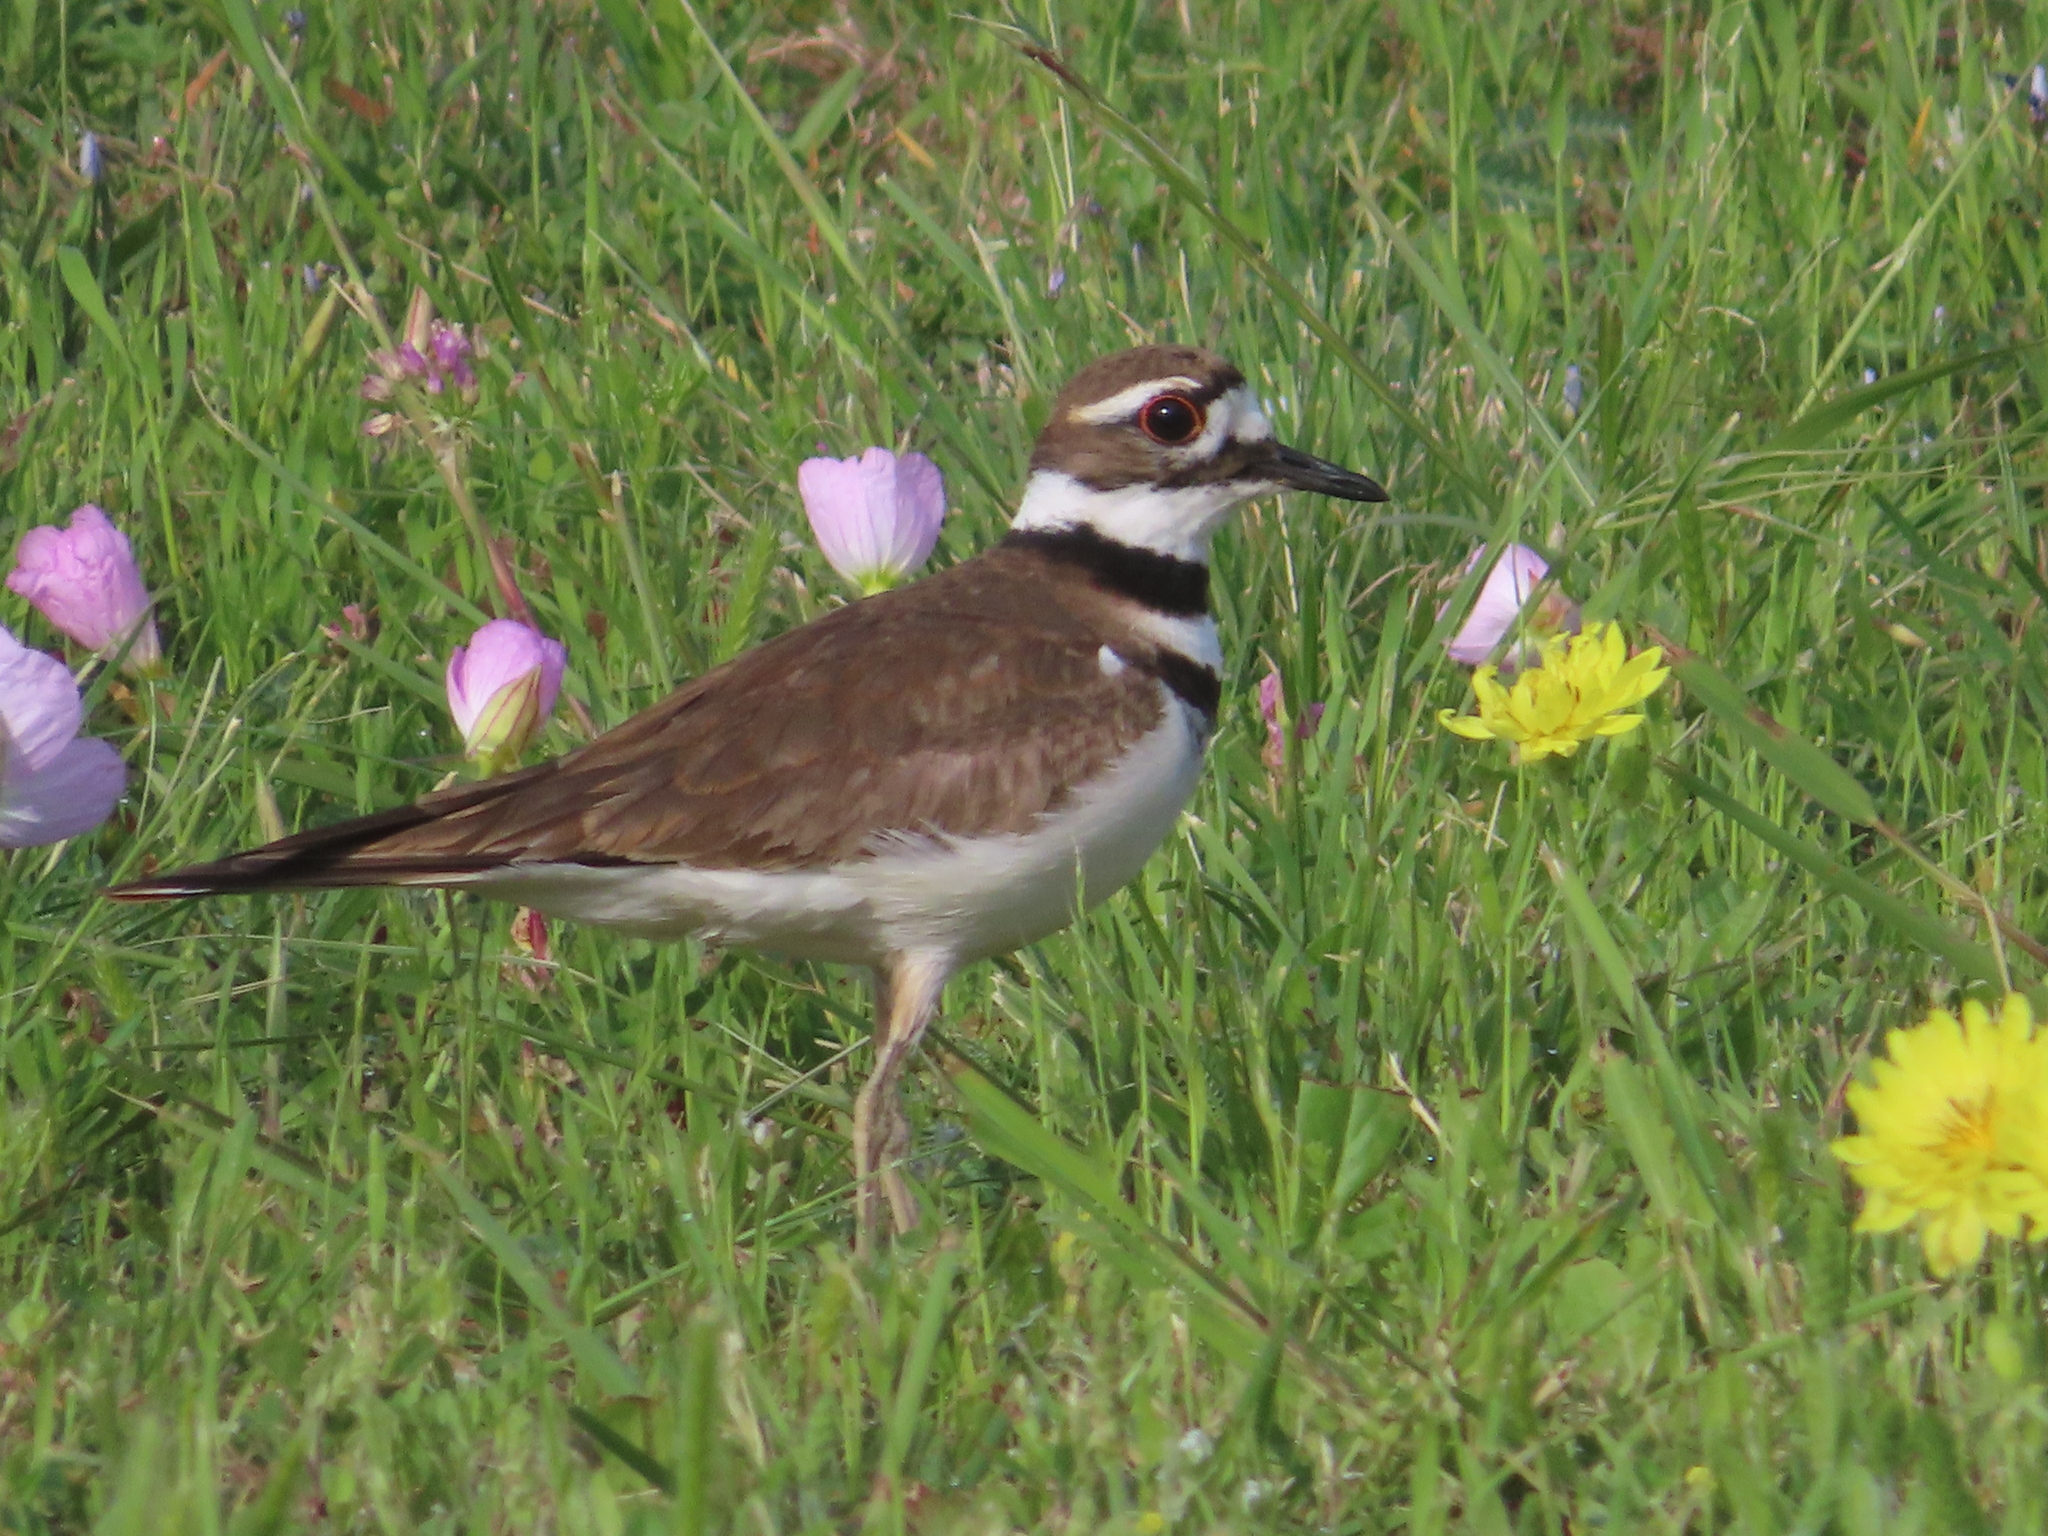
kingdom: Animalia
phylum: Chordata
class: Aves
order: Charadriiformes
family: Charadriidae
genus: Charadrius
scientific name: Charadrius vociferus
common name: Killdeer
